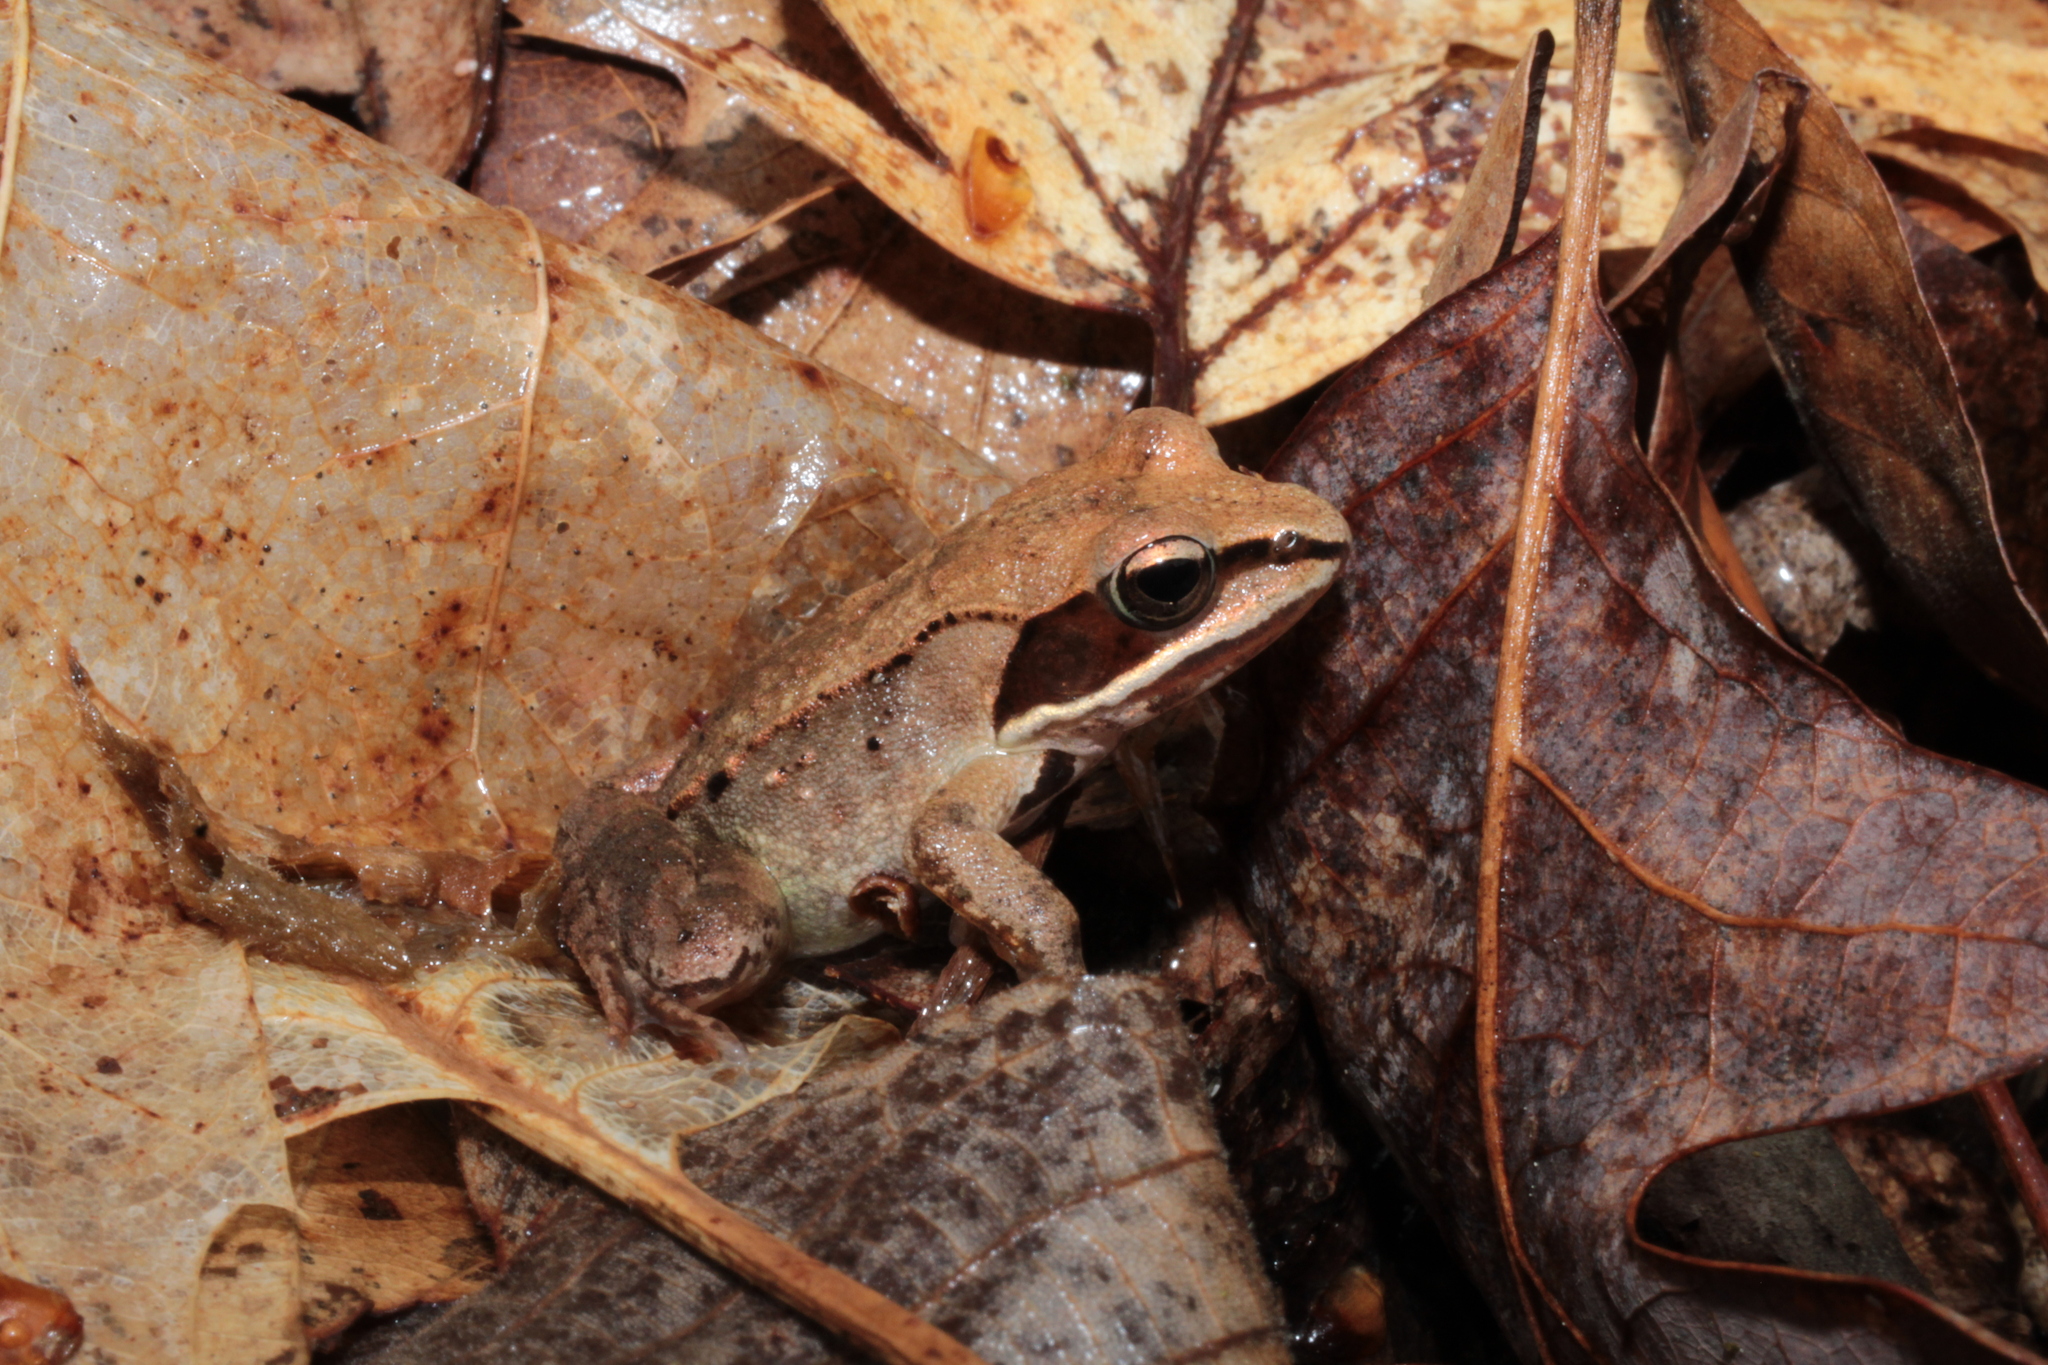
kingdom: Animalia
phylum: Chordata
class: Amphibia
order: Anura
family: Ranidae
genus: Lithobates
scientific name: Lithobates sylvaticus
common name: Wood frog
